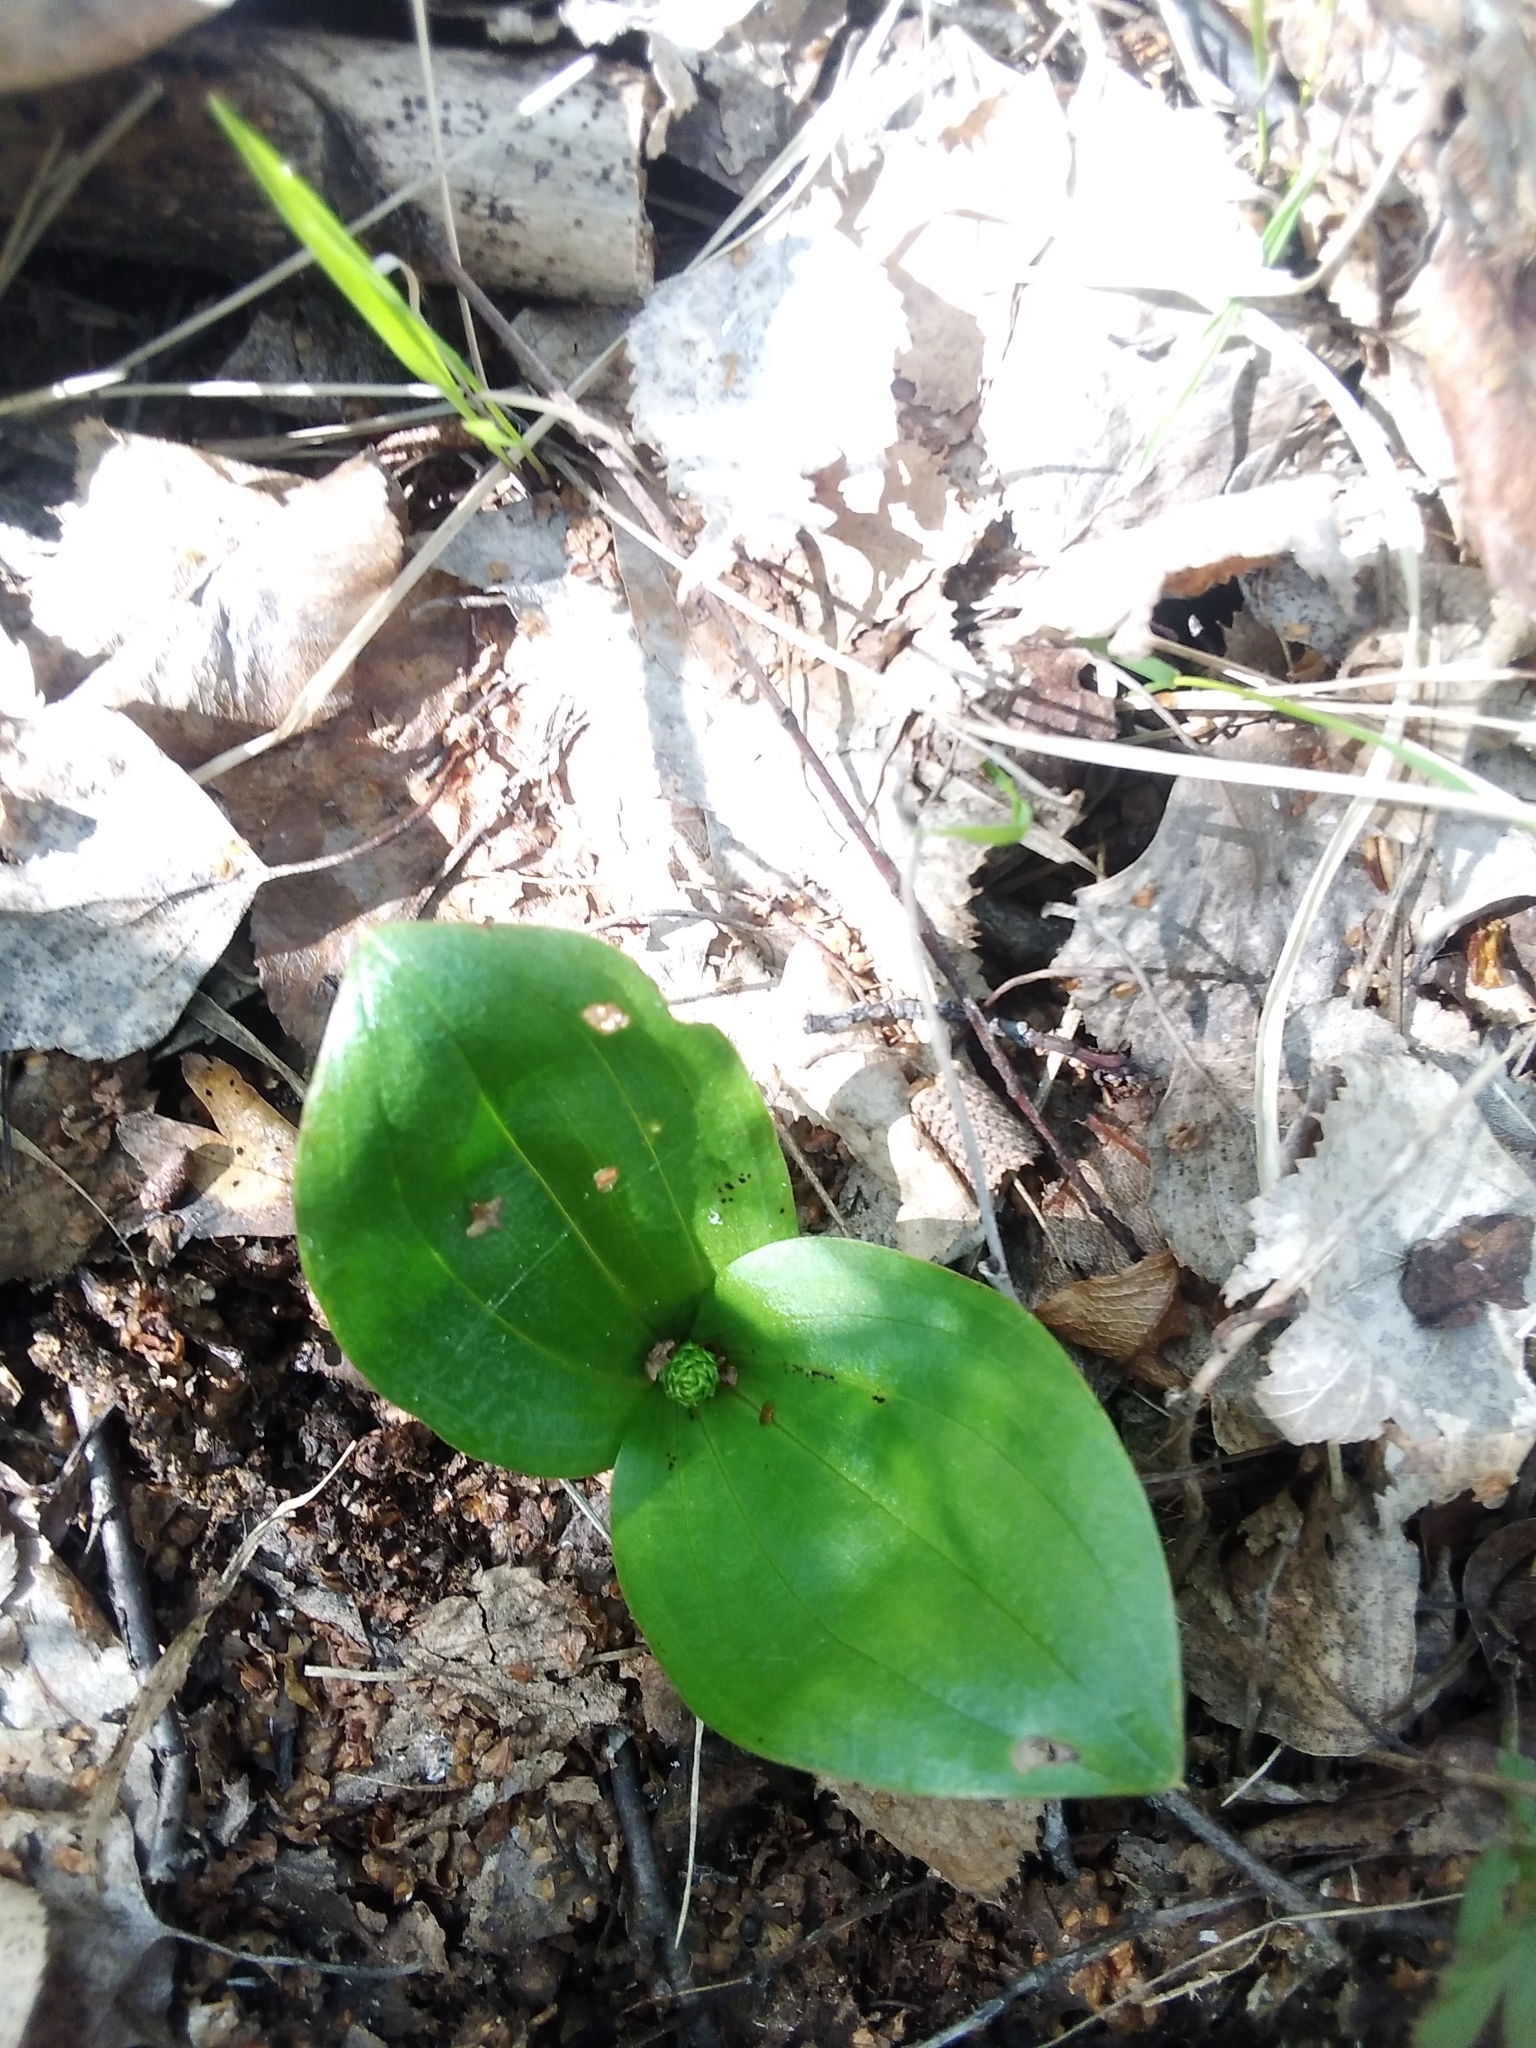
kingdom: Plantae
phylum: Tracheophyta
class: Liliopsida
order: Asparagales
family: Orchidaceae
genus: Neottia
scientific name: Neottia ovata
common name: Common twayblade
